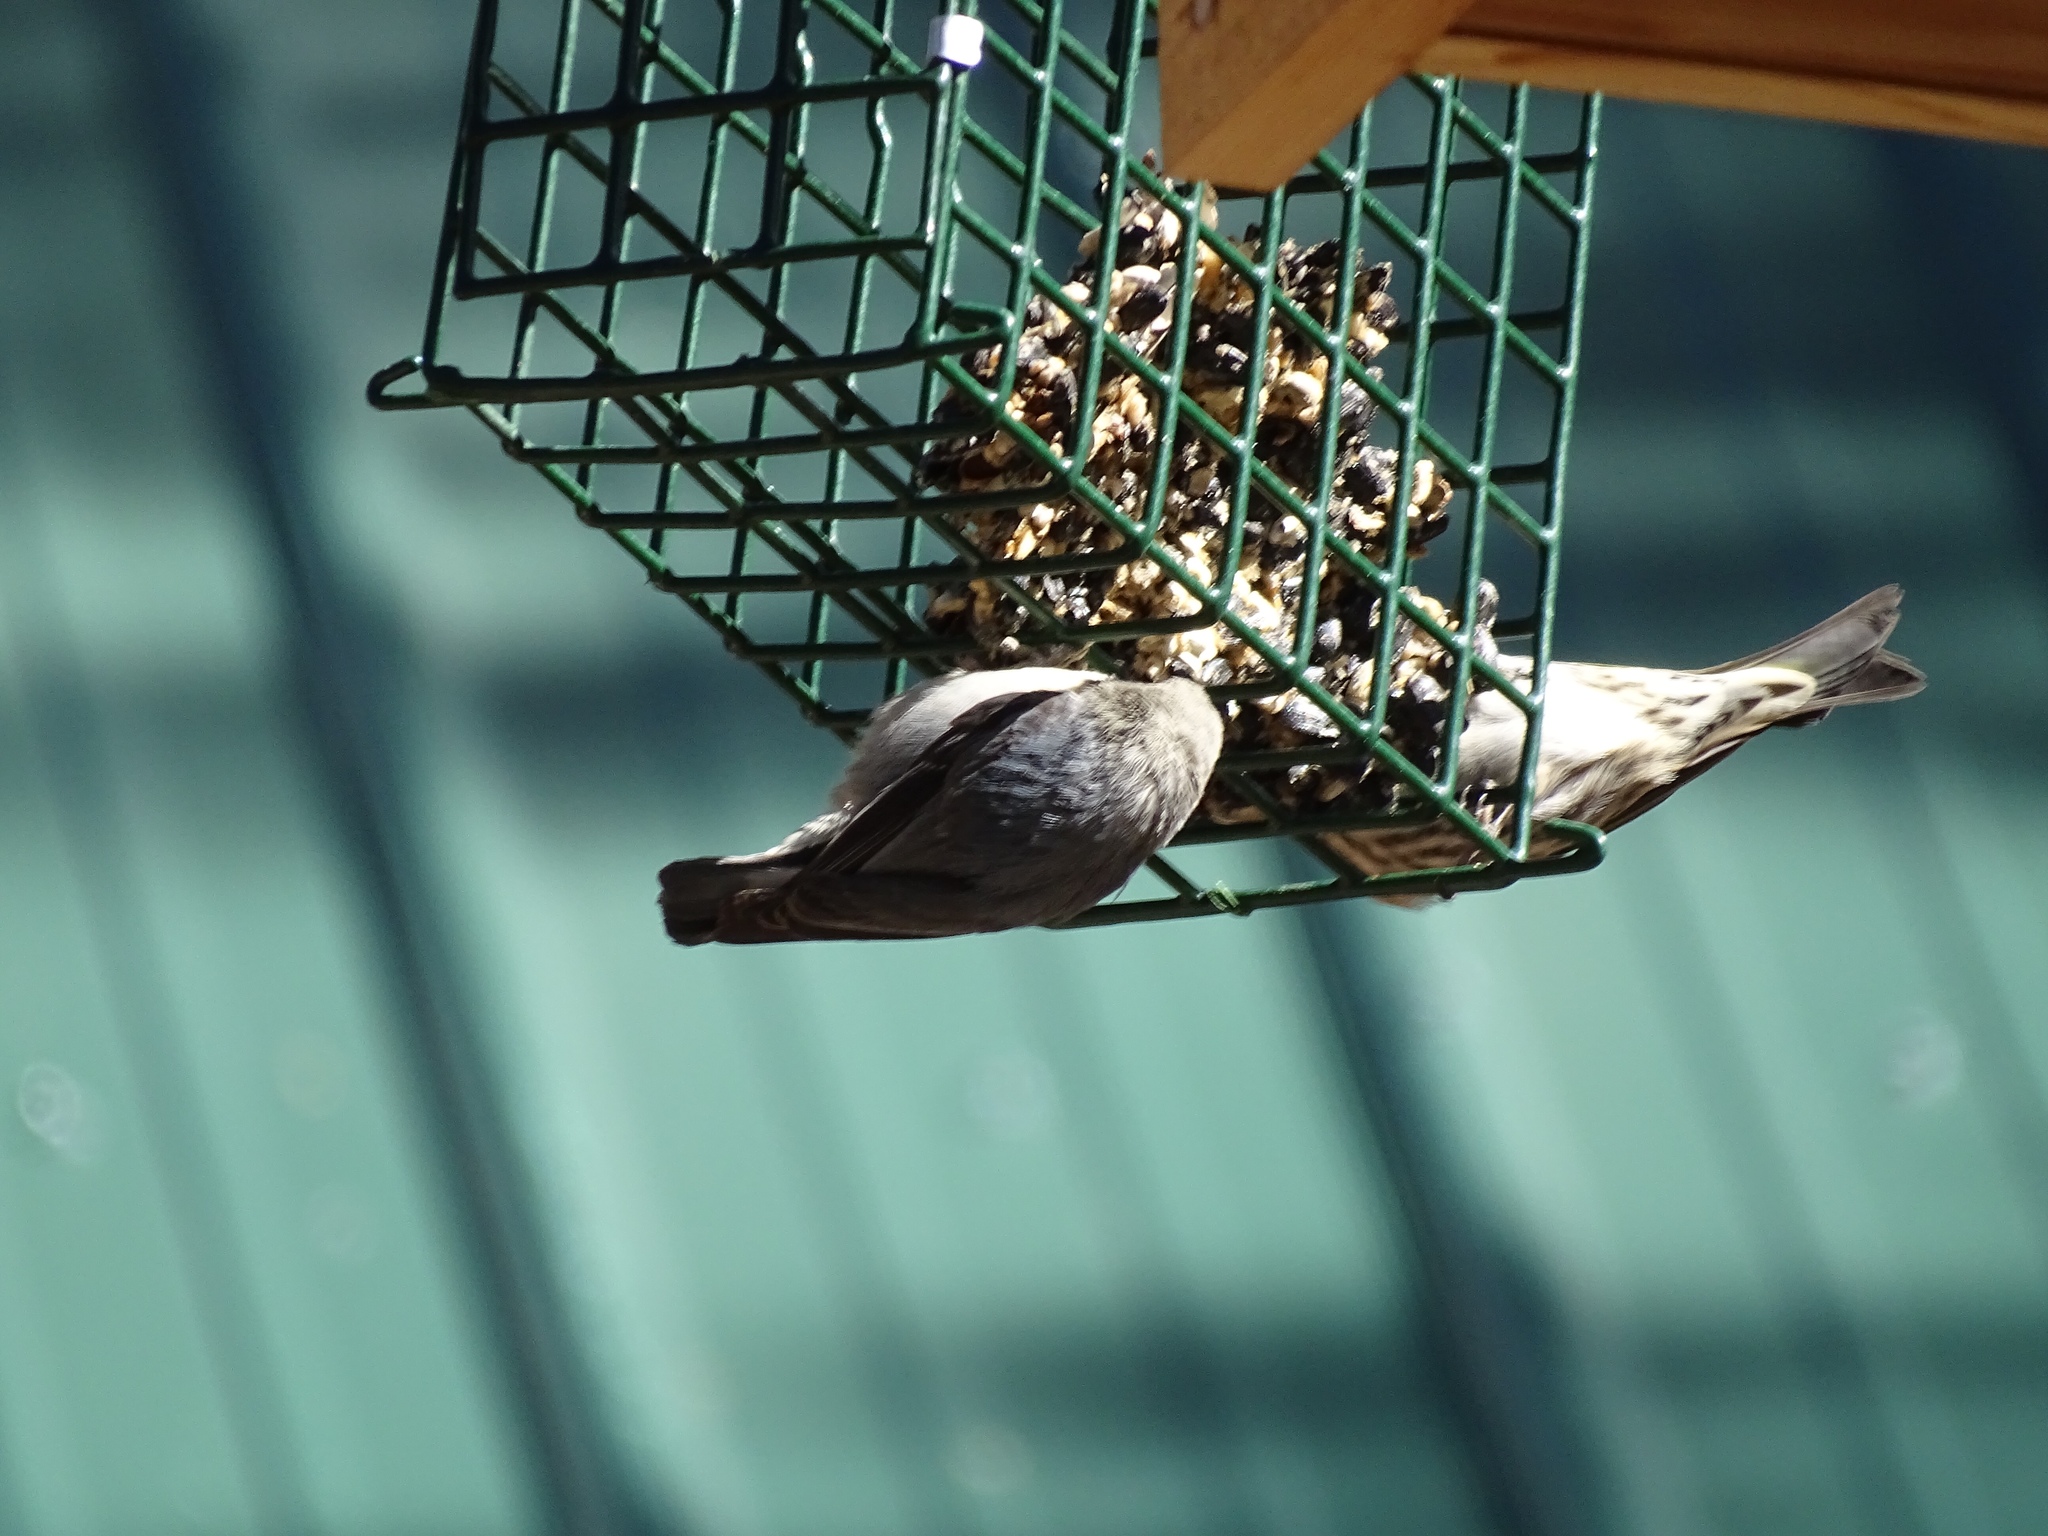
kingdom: Animalia
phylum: Chordata
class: Aves
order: Passeriformes
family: Sittidae
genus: Sitta
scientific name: Sitta pygmaea
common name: Pygmy nuthatch
